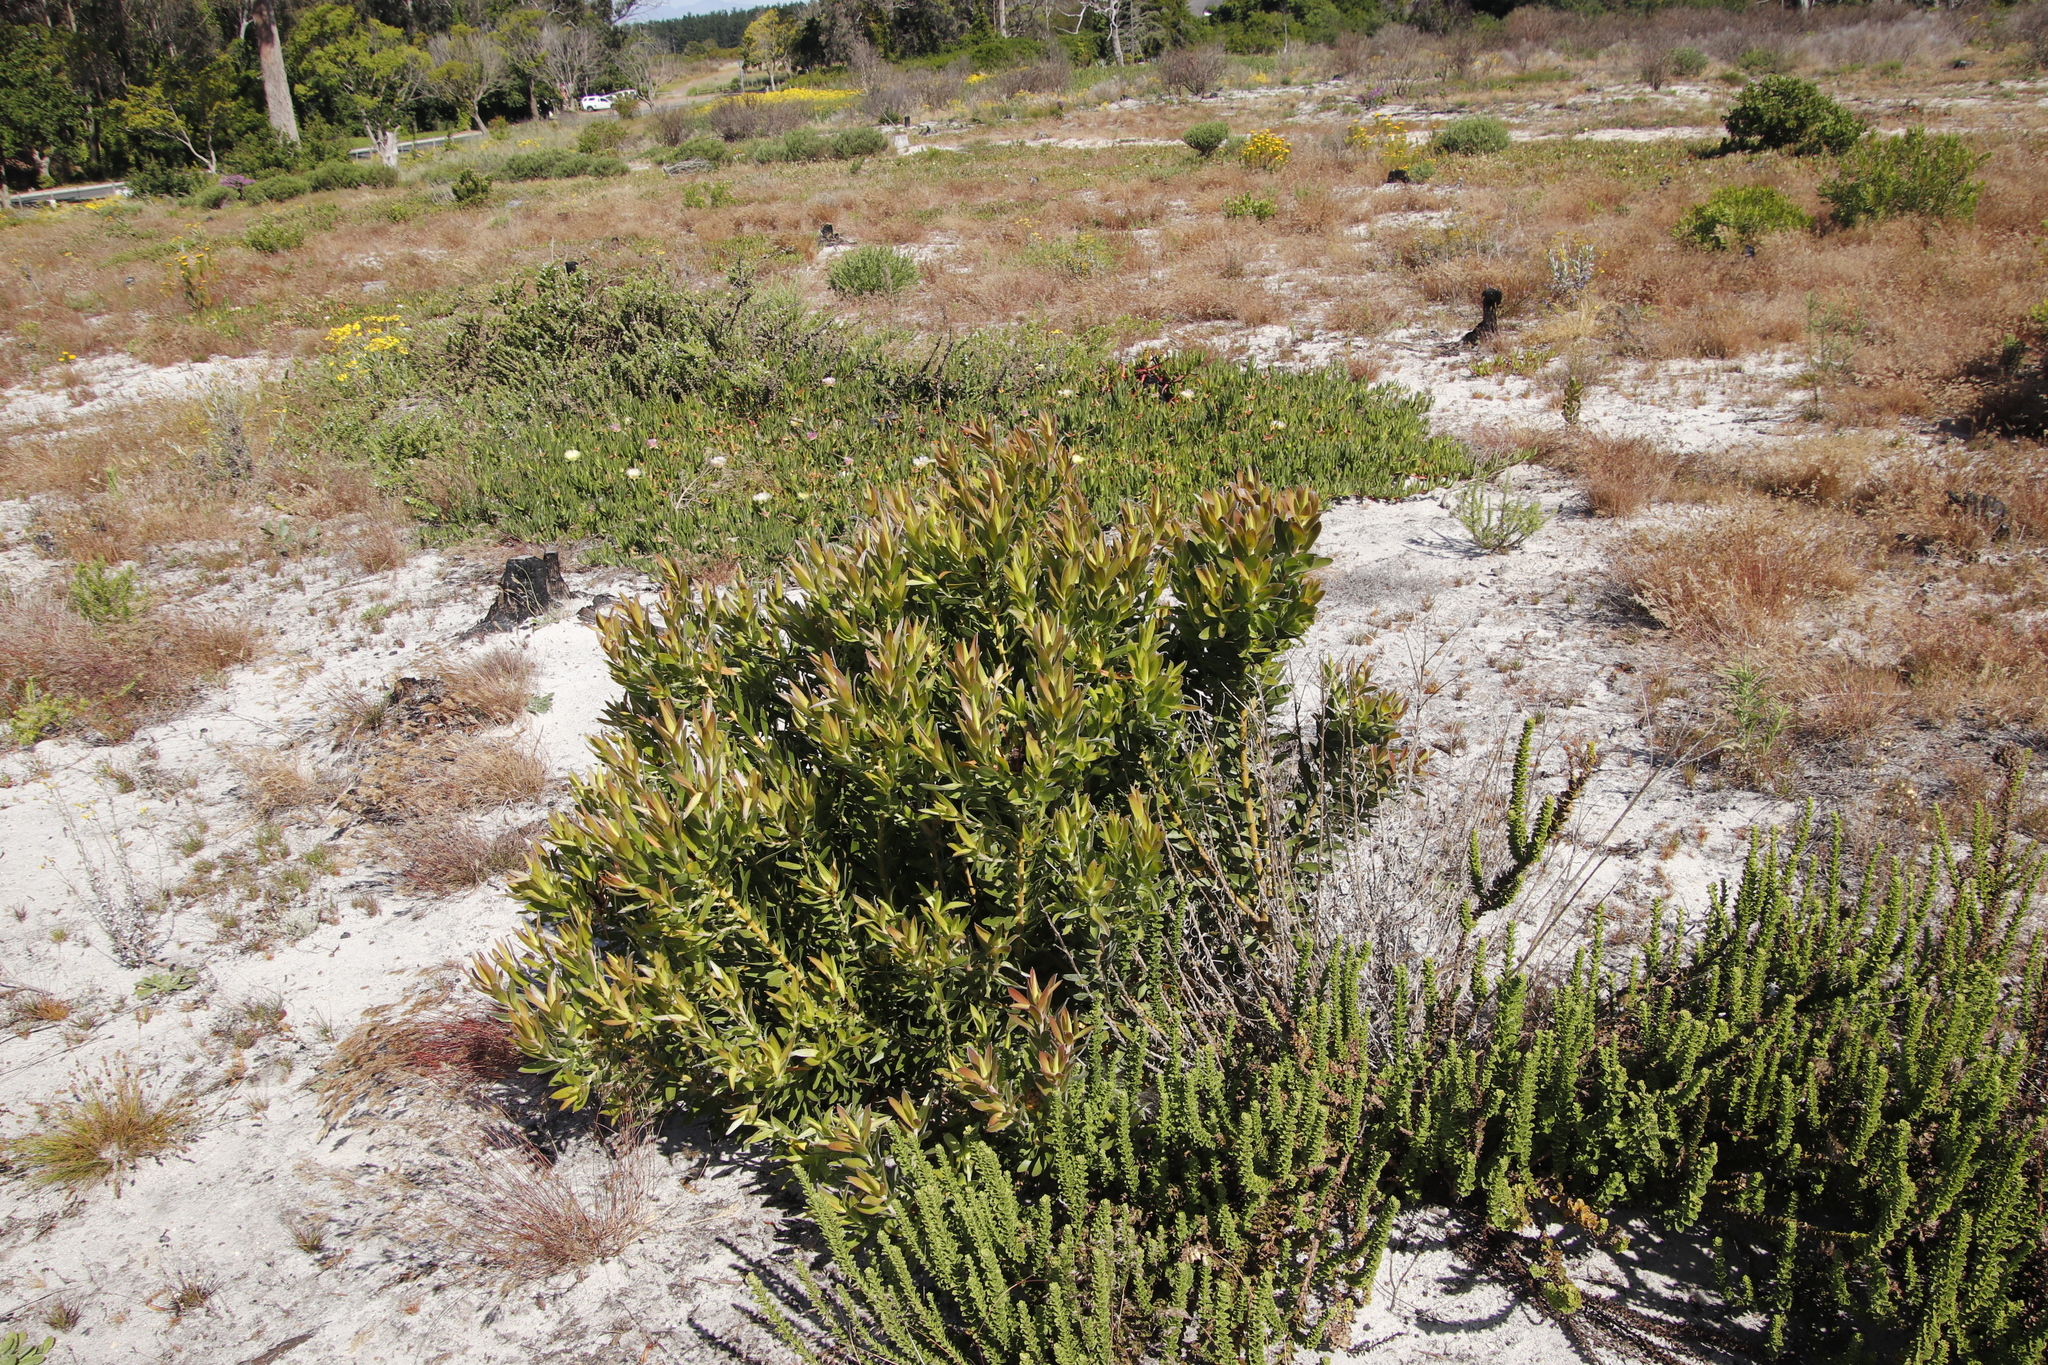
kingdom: Plantae
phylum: Tracheophyta
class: Magnoliopsida
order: Proteales
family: Proteaceae
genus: Leucadendron
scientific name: Leucadendron laureolum
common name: Golden sunshinebush
